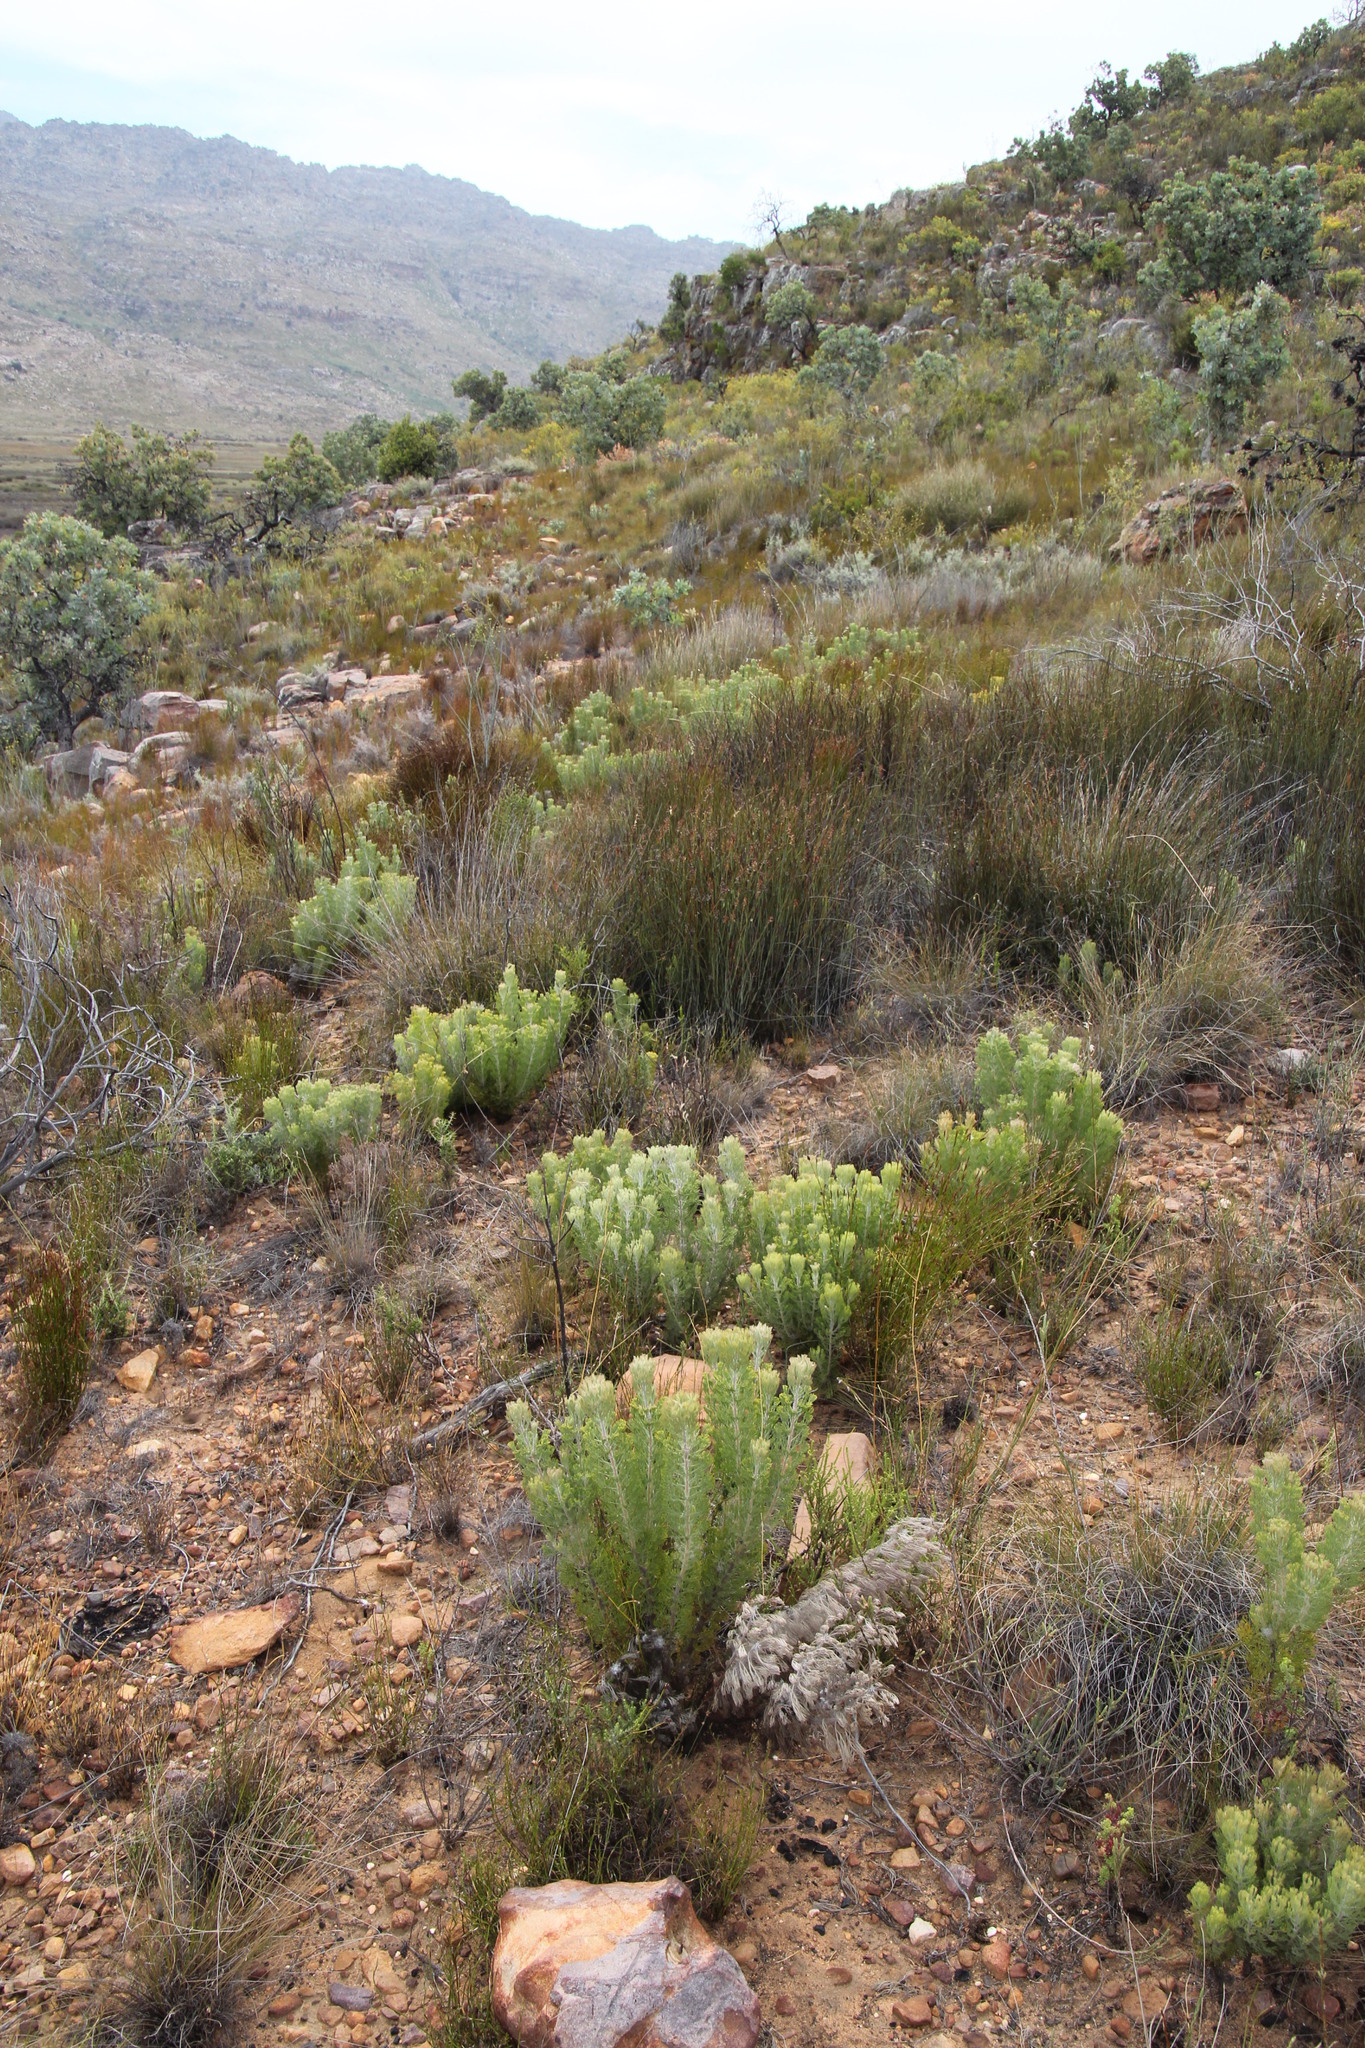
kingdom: Plantae
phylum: Tracheophyta
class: Magnoliopsida
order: Proteales
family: Proteaceae
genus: Paranomus
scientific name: Paranomus bracteolaris
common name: Bokkeveld tree sceptre
